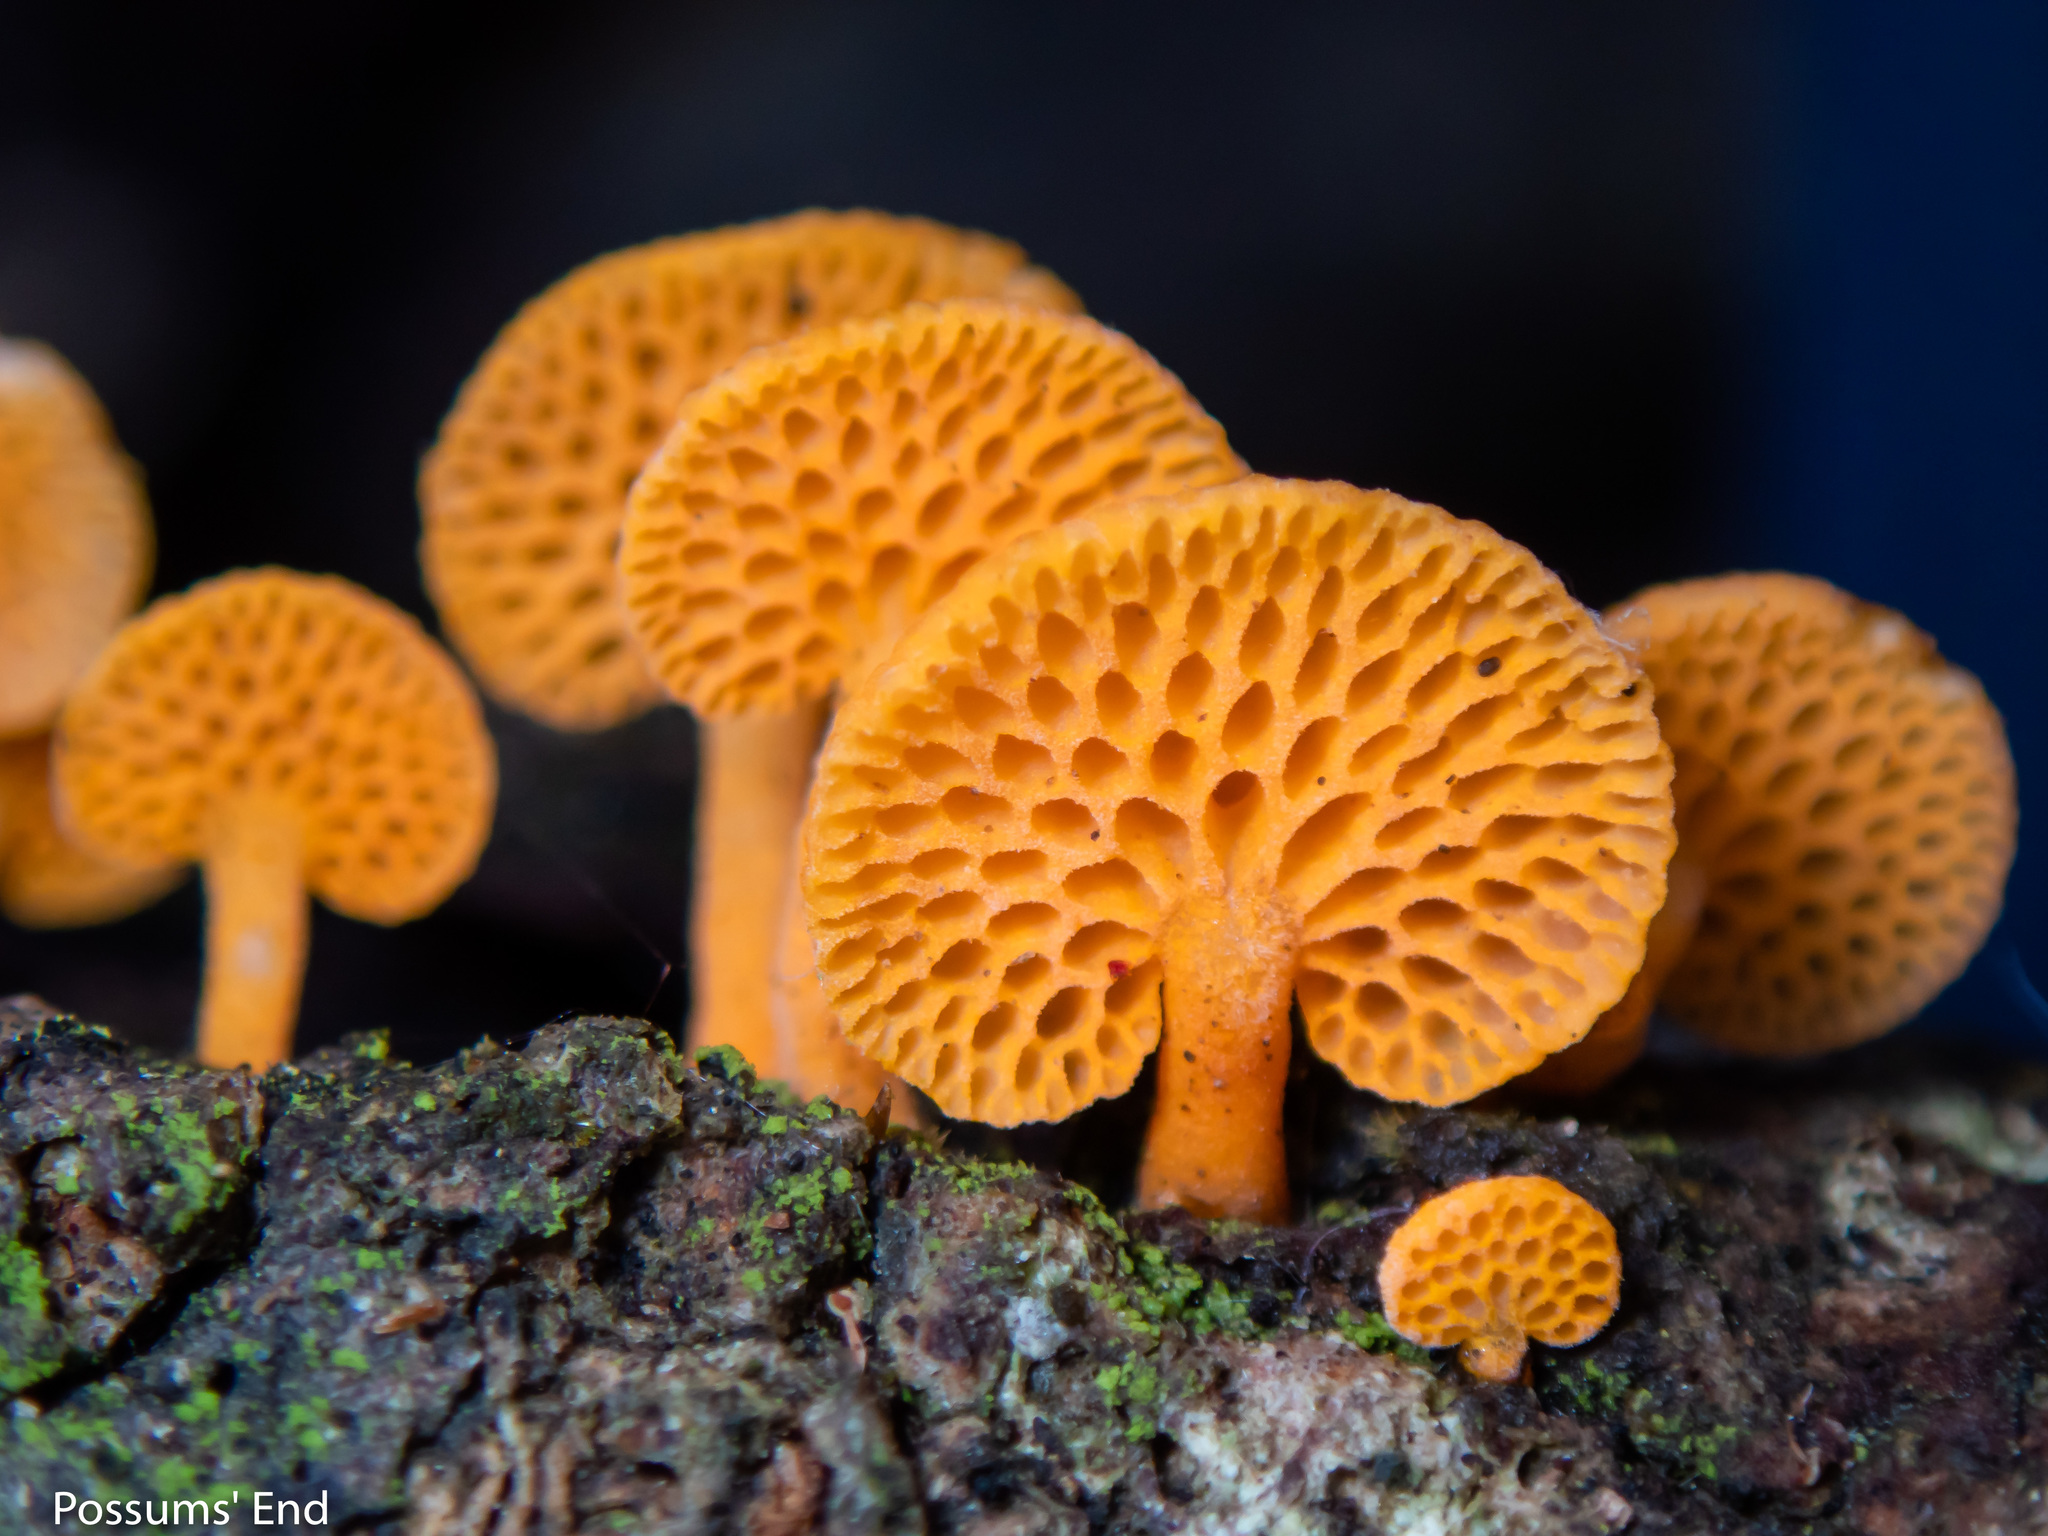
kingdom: Fungi
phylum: Basidiomycota
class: Agaricomycetes
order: Agaricales
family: Mycenaceae
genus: Favolaschia
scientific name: Favolaschia claudopus
